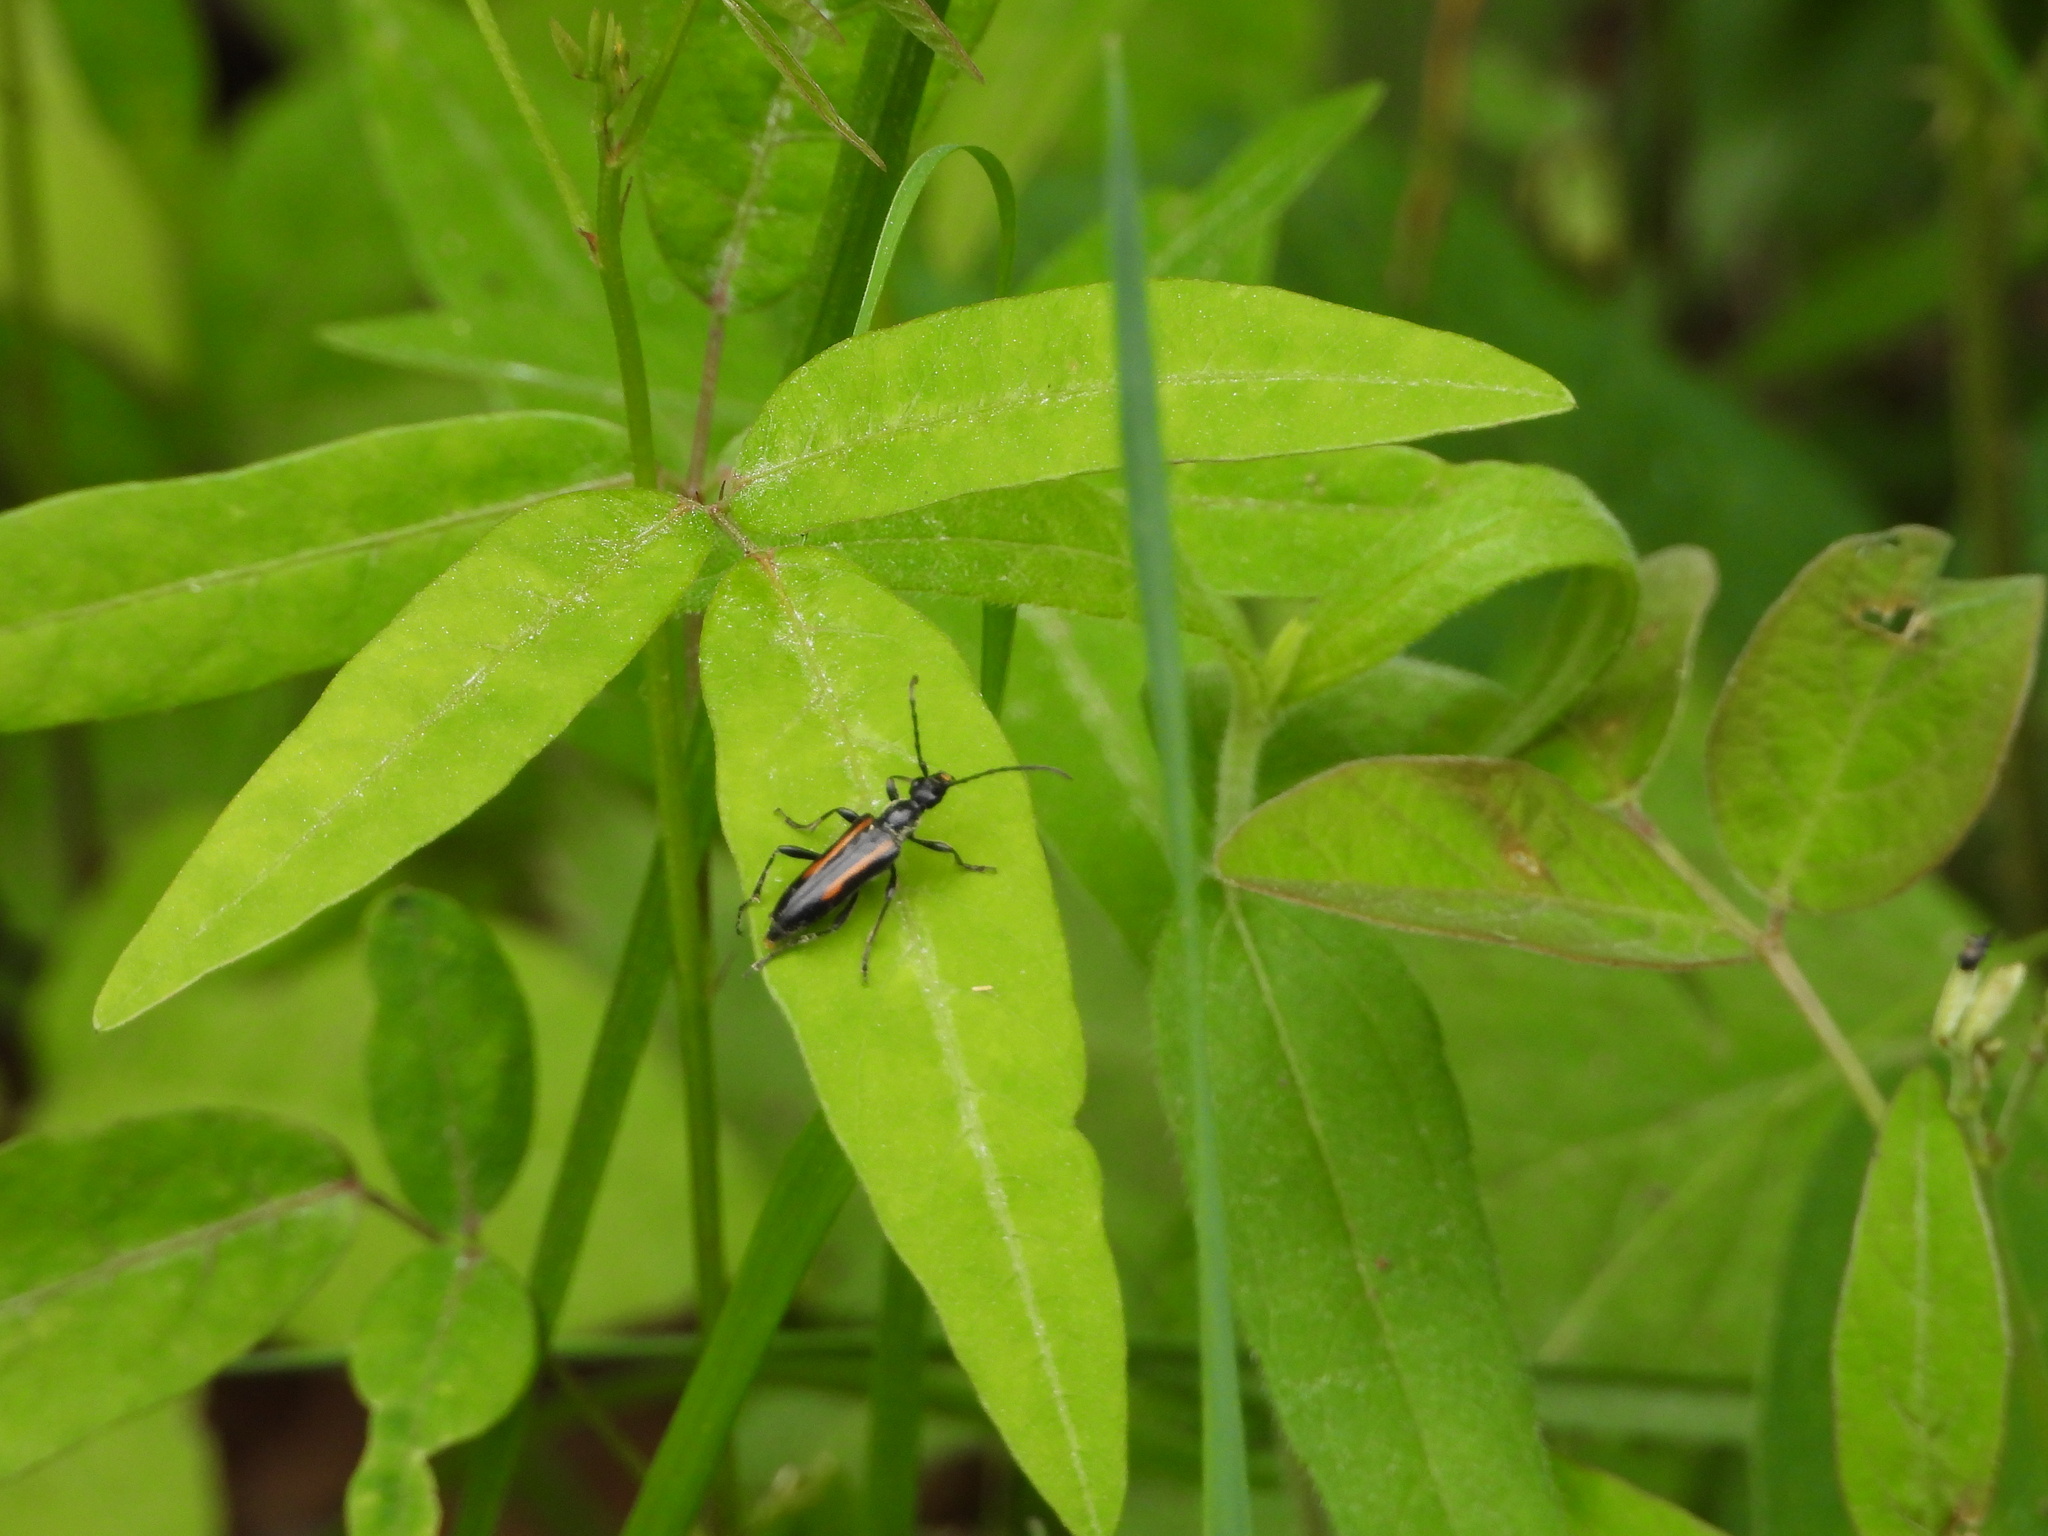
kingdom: Animalia
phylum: Arthropoda
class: Insecta
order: Coleoptera
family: Cerambycidae
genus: Strangalepta
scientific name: Strangalepta abbreviata
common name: Strangalepta flower longhorn beetle
